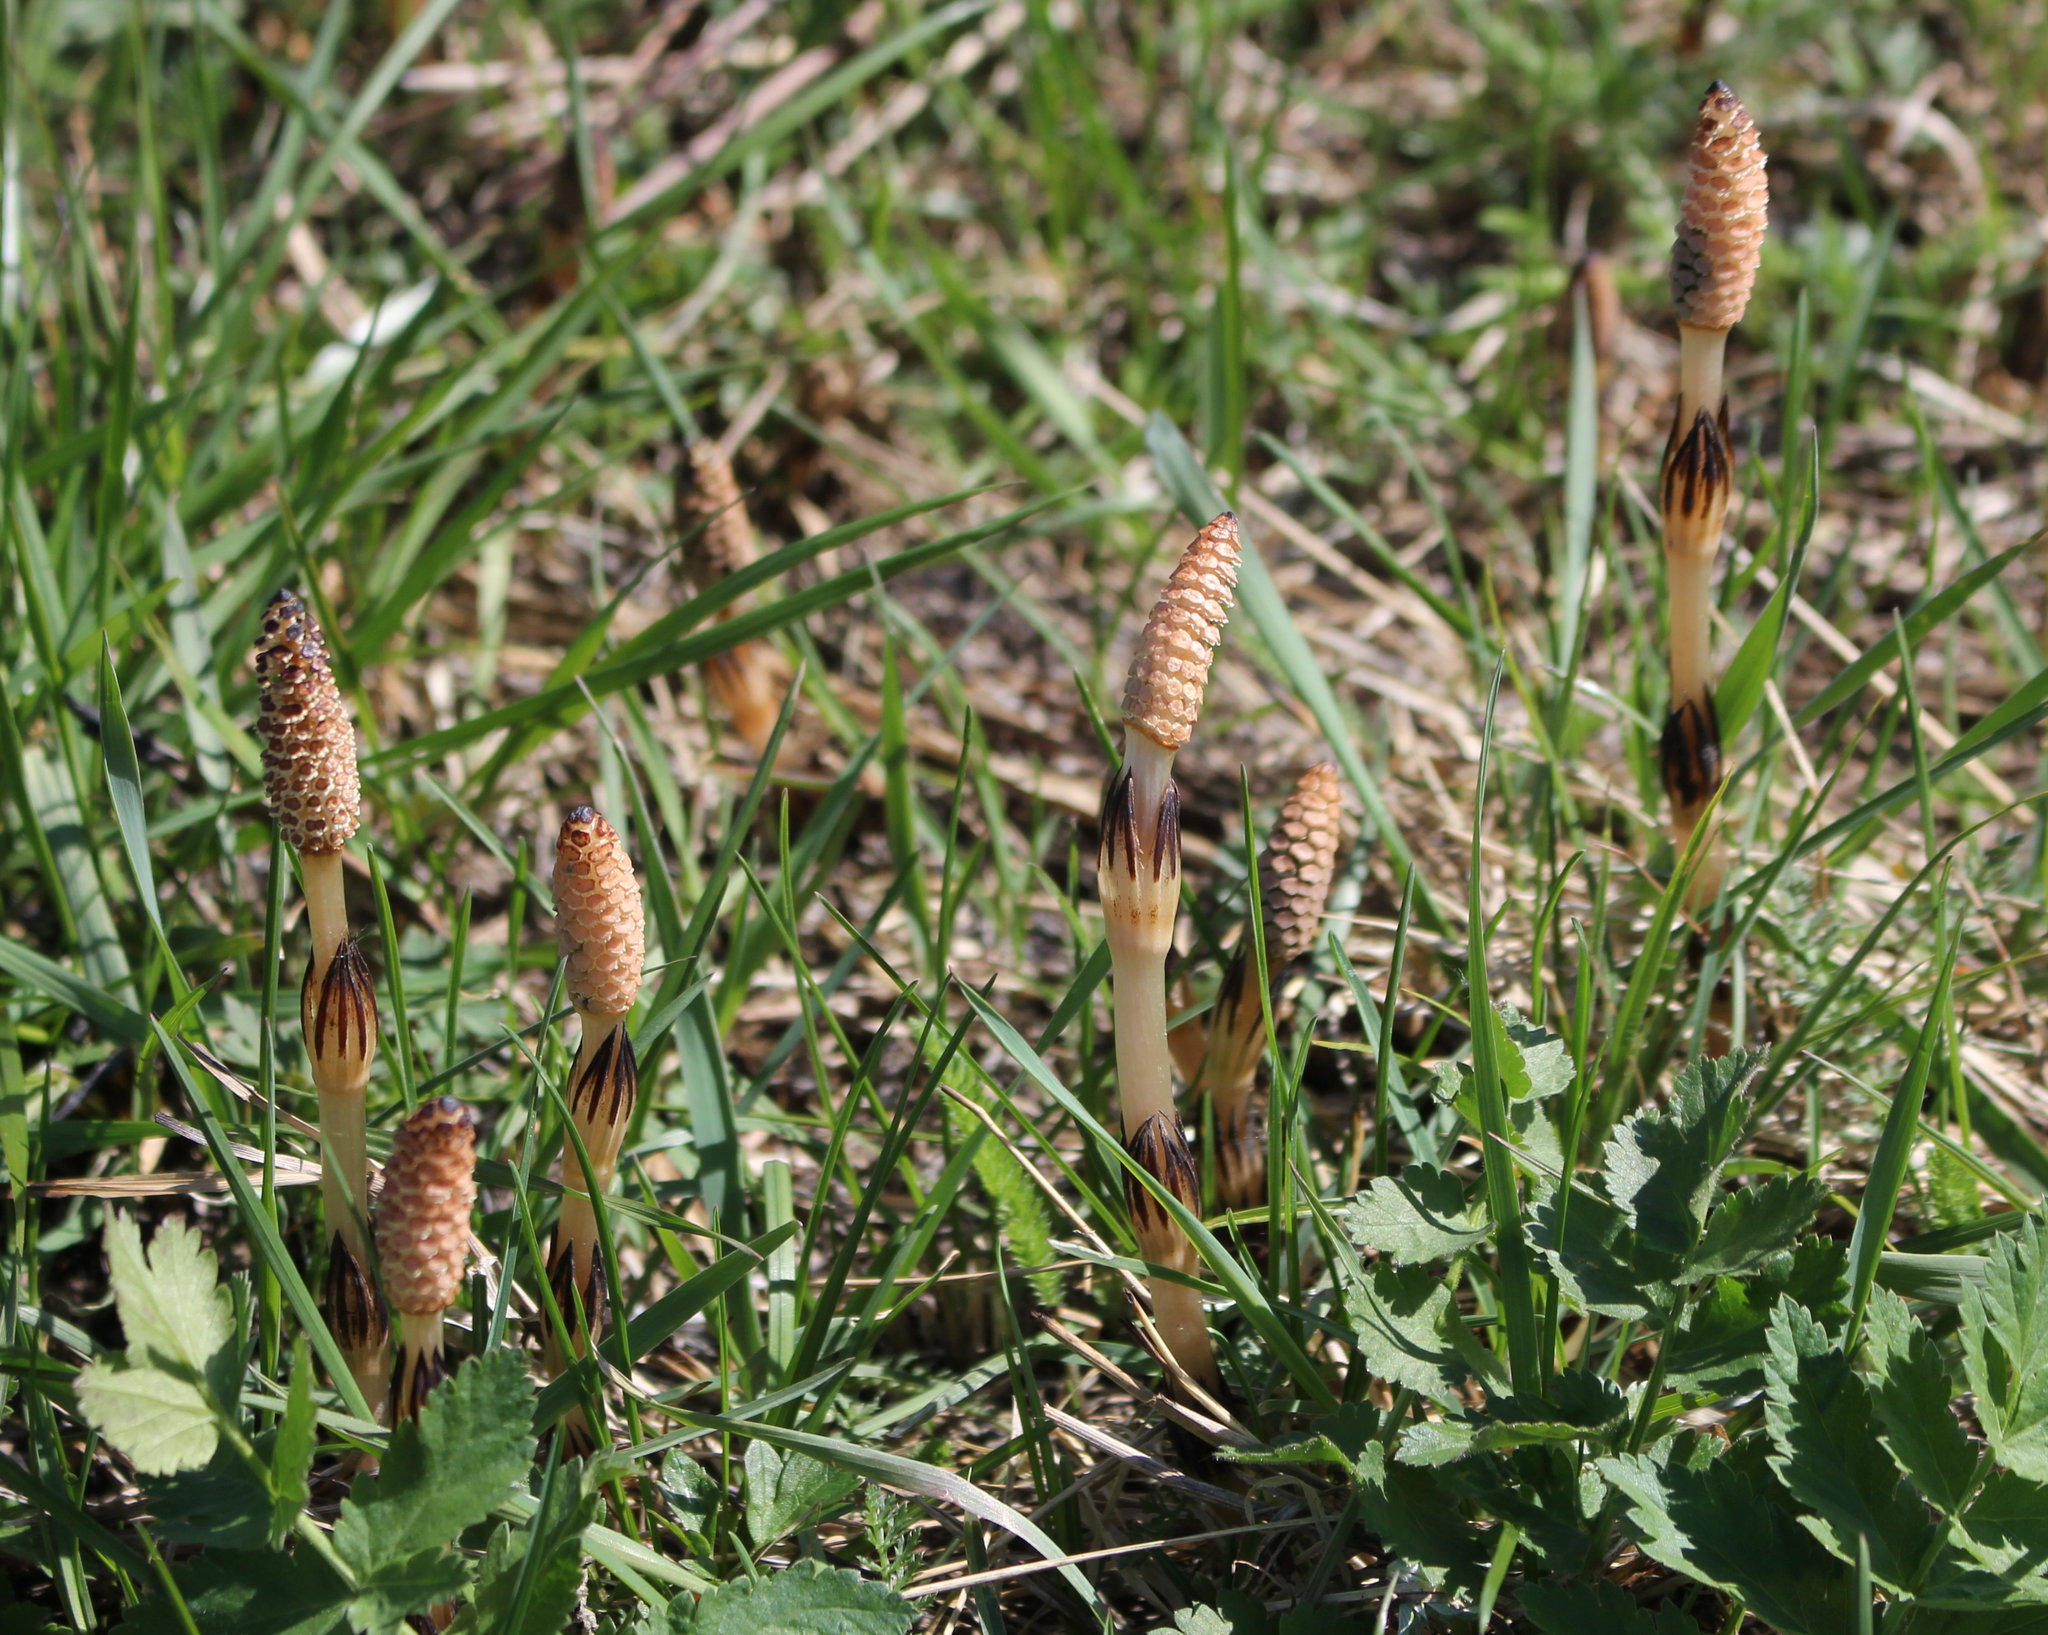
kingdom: Plantae
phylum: Tracheophyta
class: Polypodiopsida
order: Equisetales
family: Equisetaceae
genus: Equisetum
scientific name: Equisetum arvense
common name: Field horsetail
